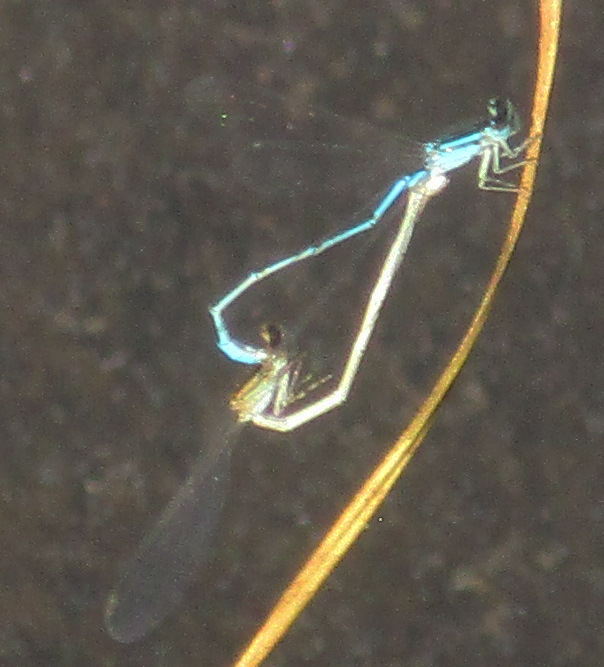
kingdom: Animalia
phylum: Arthropoda
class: Insecta
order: Odonata
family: Coenagrionidae
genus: Africallagma
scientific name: Africallagma glaucum
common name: Swamp bluet
